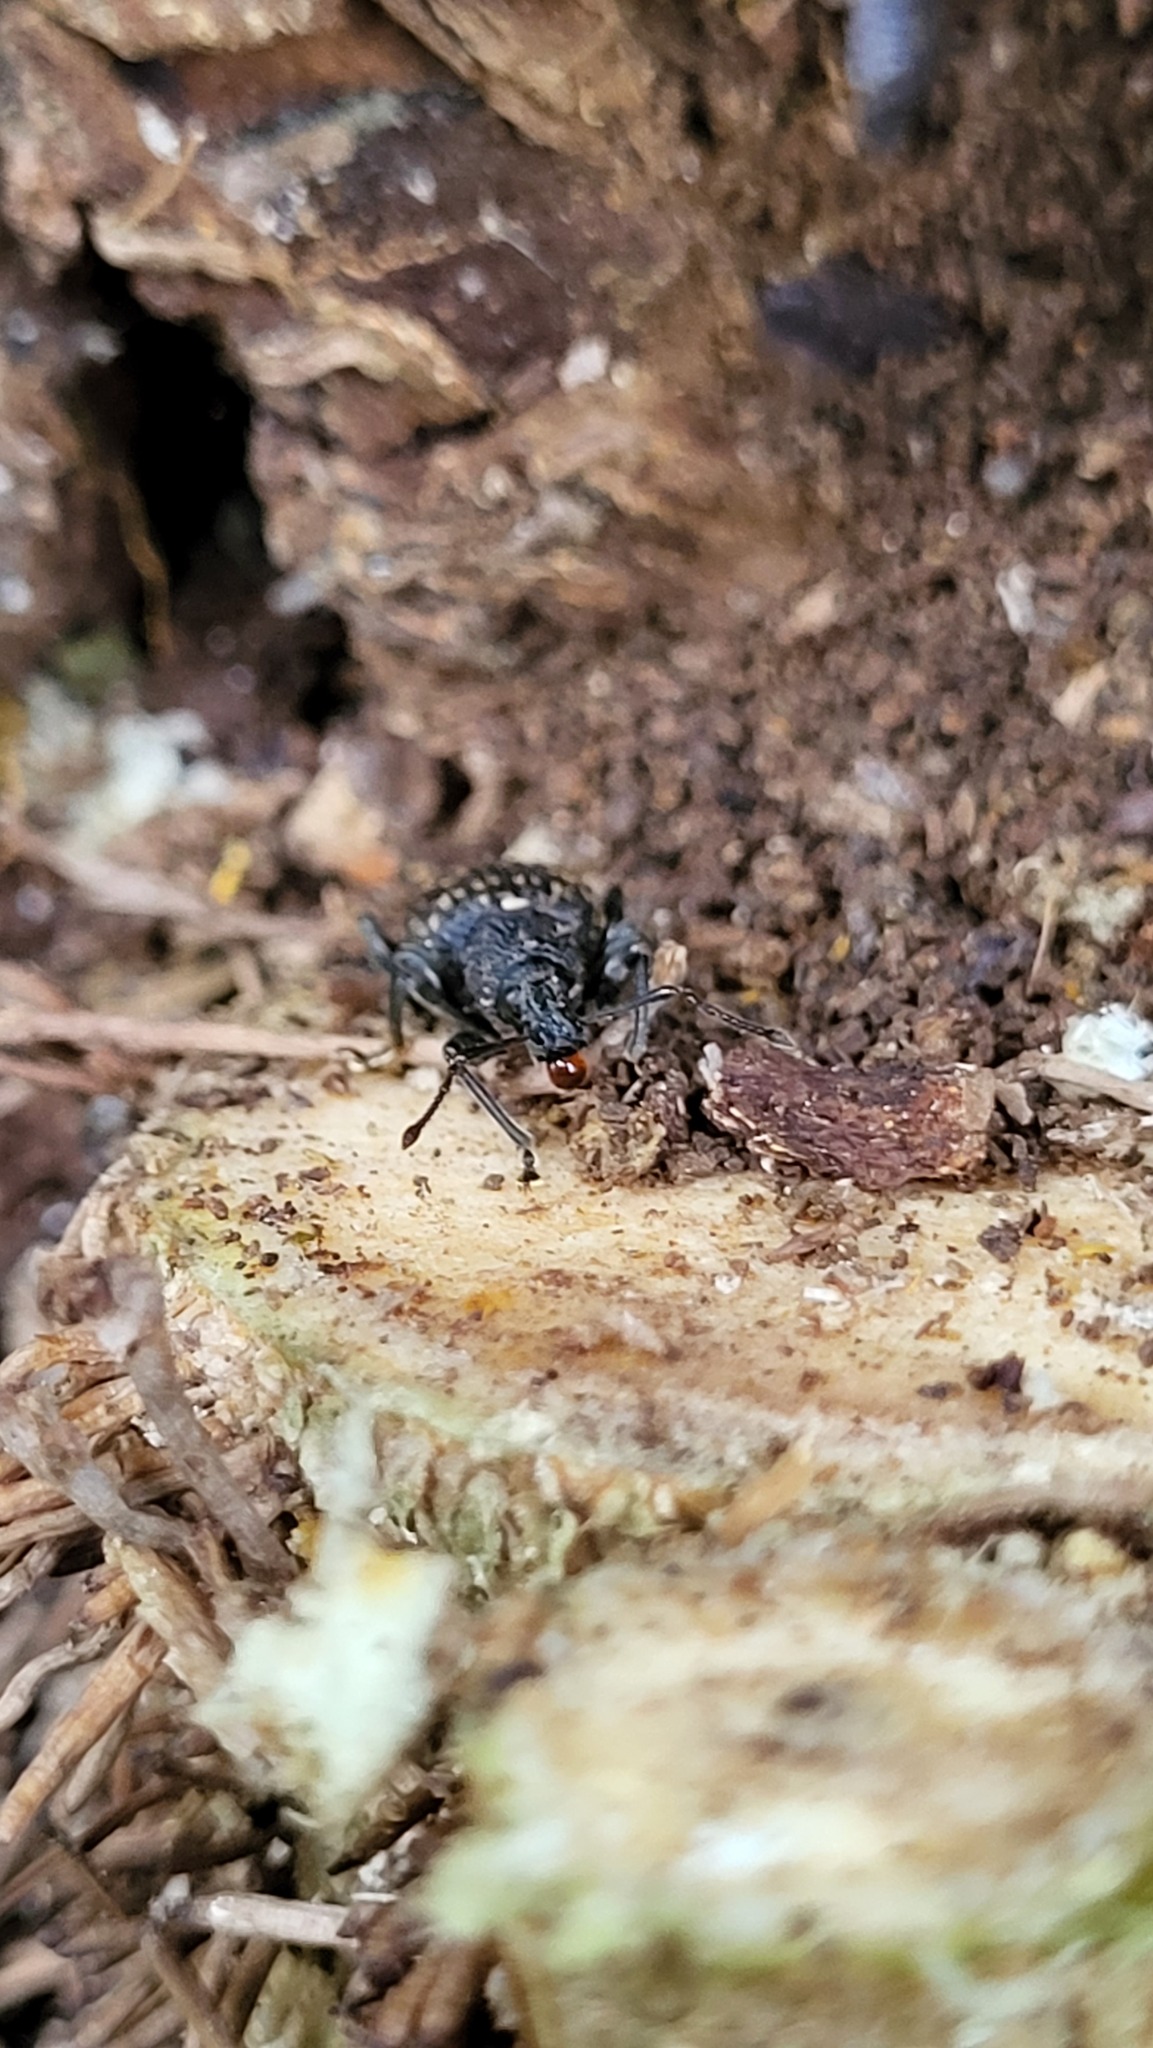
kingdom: Animalia
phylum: Arthropoda
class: Insecta
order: Coleoptera
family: Curculionidae
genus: Otiorhynchus
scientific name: Otiorhynchus sulcatus
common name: Black vine weevil
